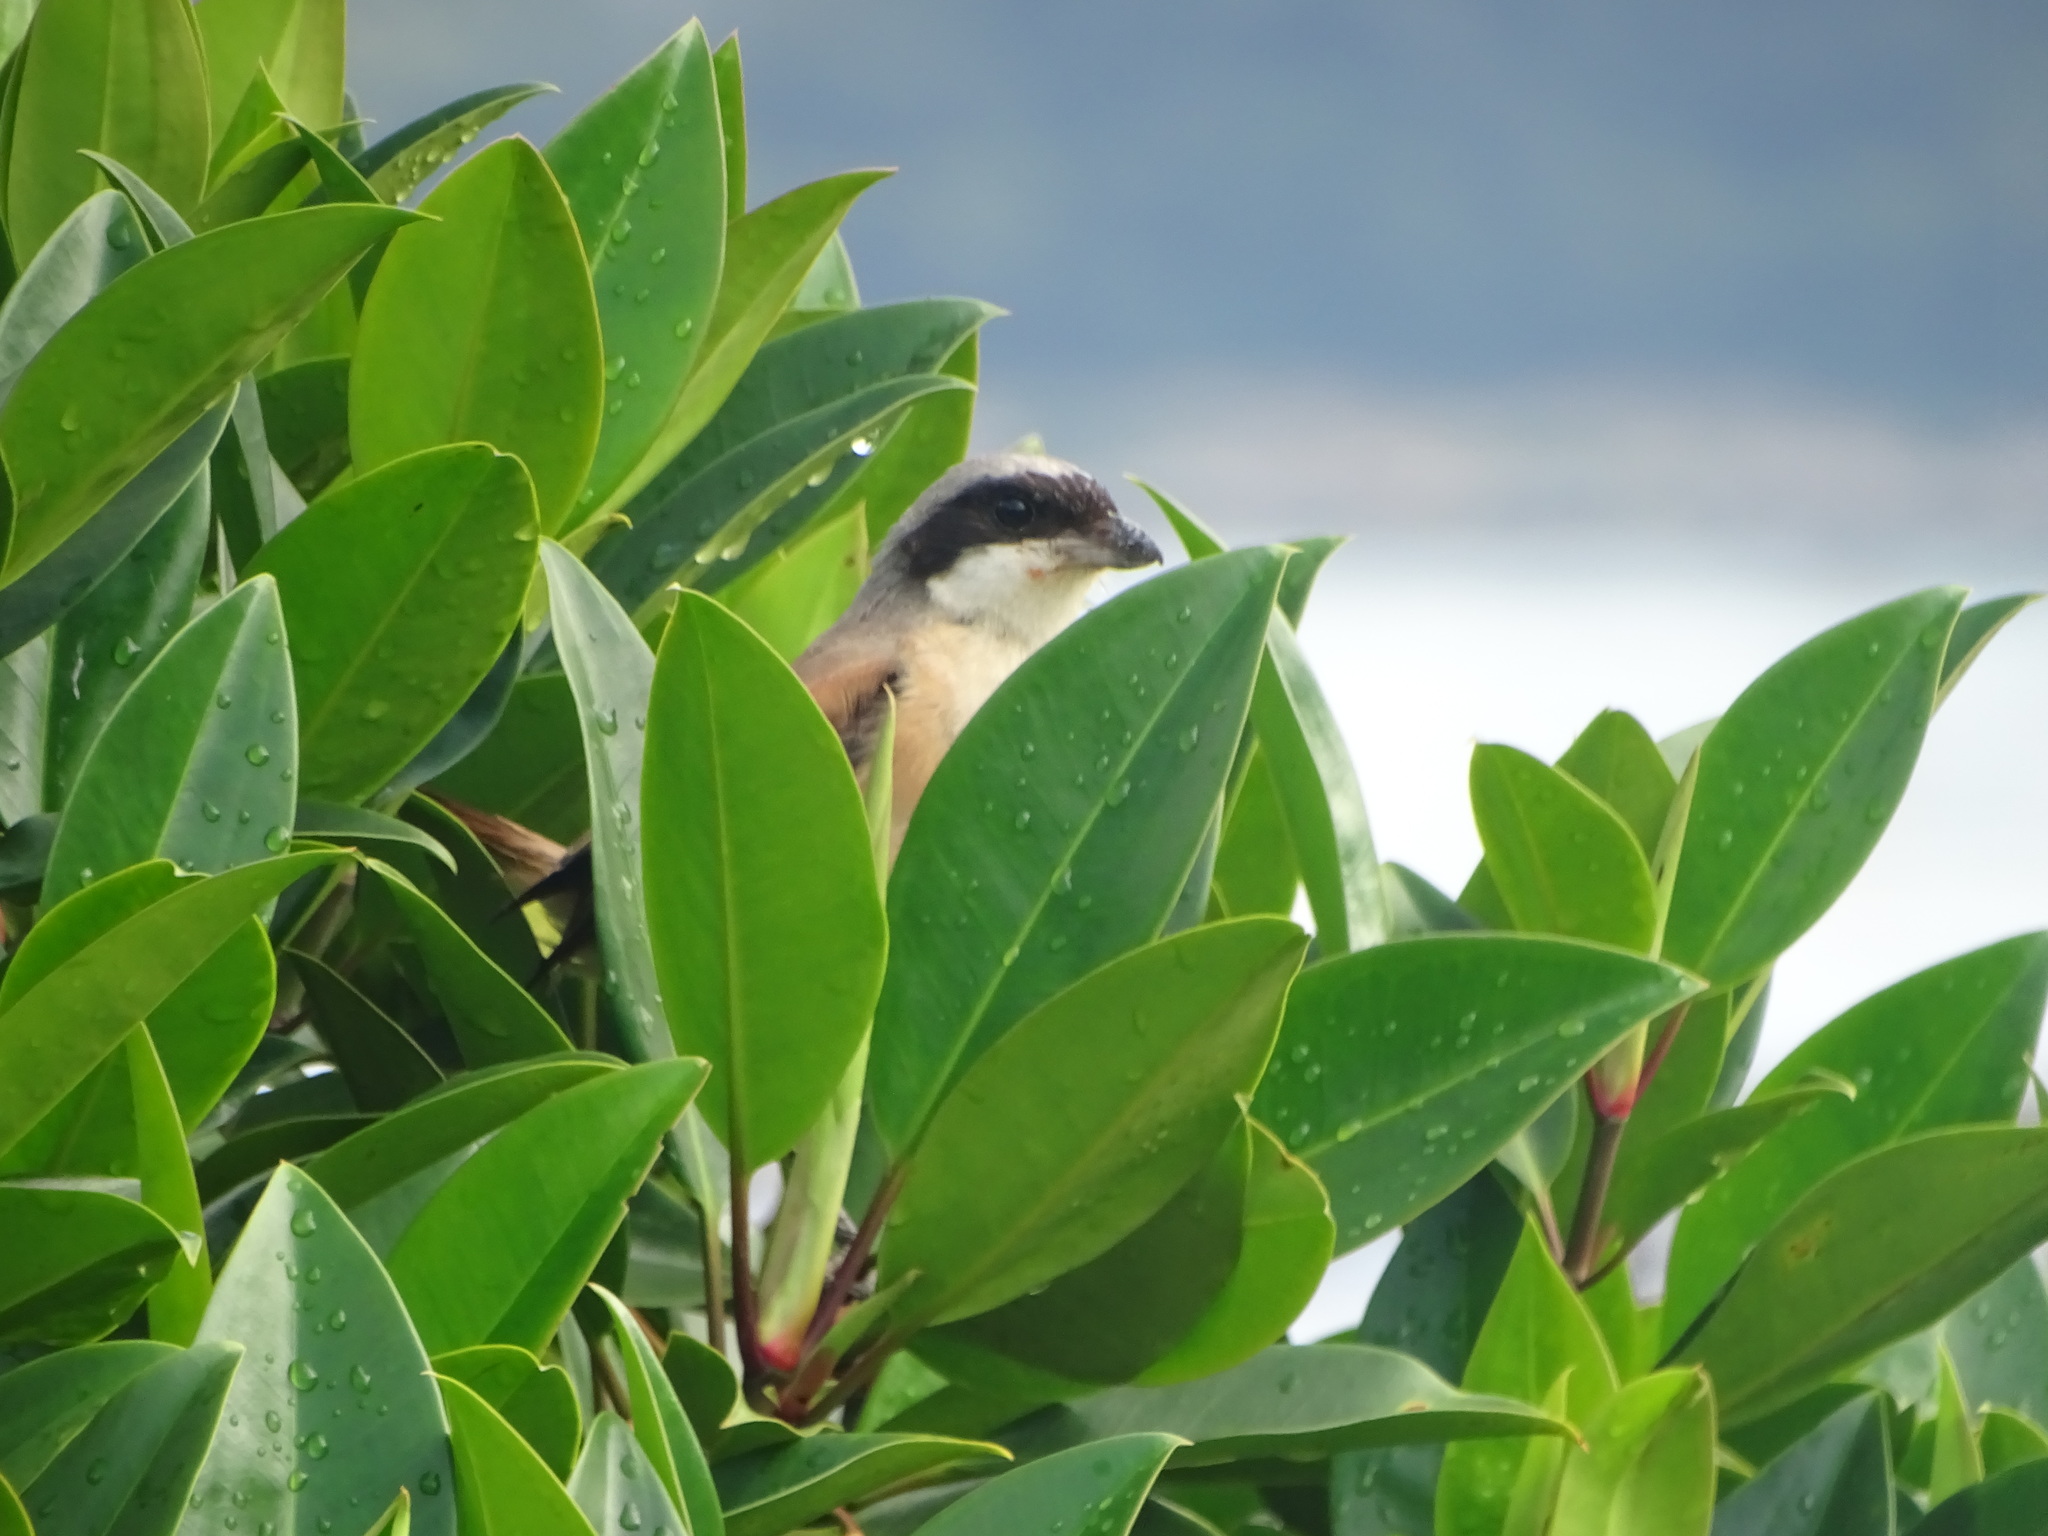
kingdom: Animalia
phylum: Chordata
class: Aves
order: Passeriformes
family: Laniidae
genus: Lanius
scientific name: Lanius schach
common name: Long-tailed shrike
